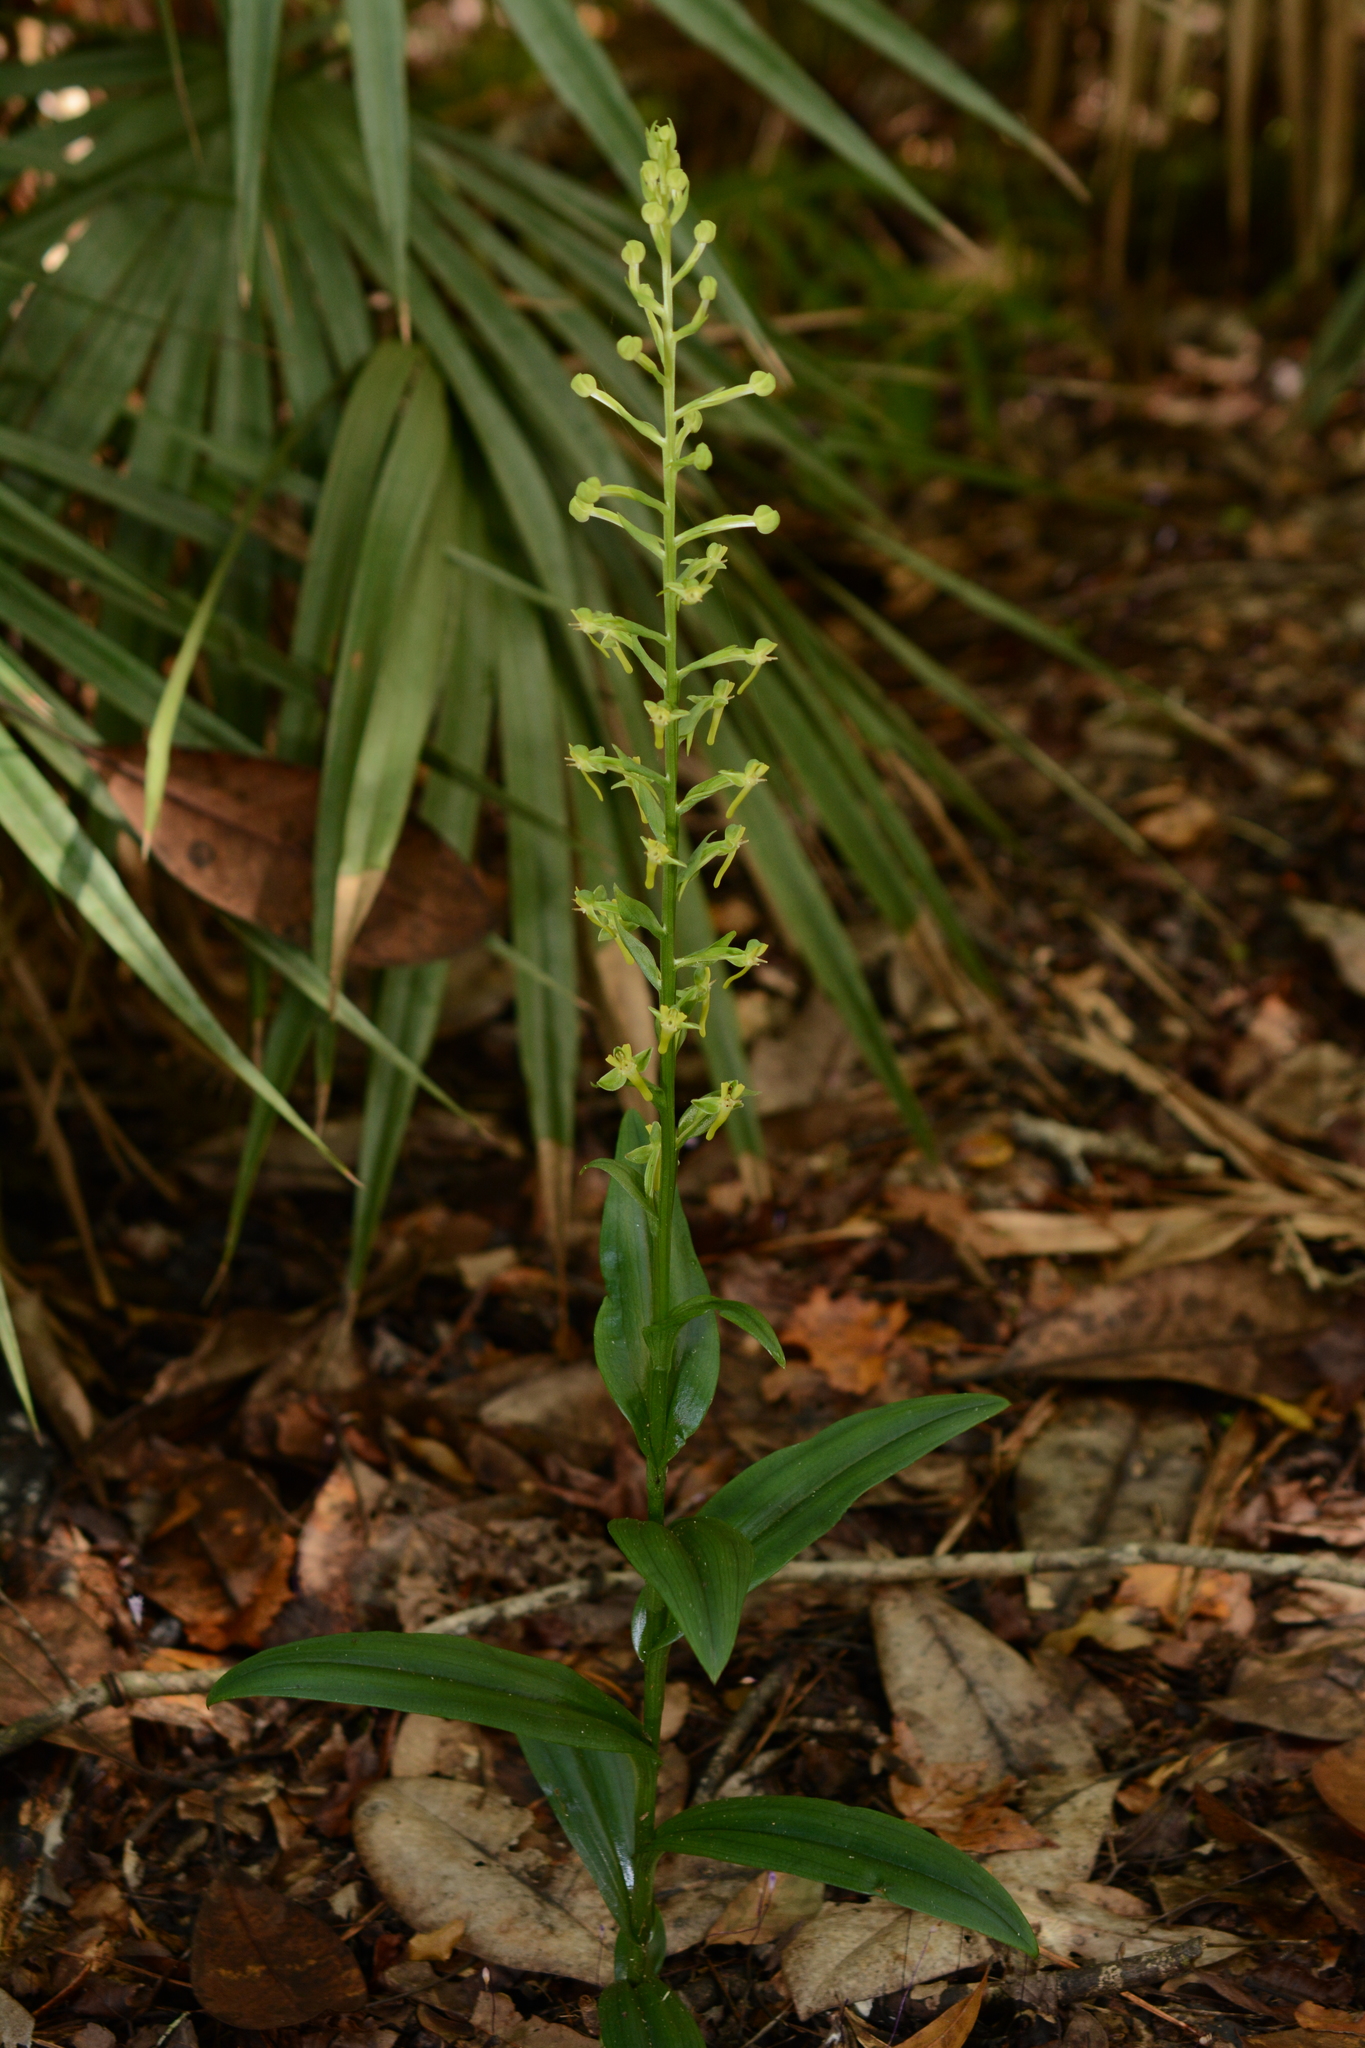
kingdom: Plantae
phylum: Tracheophyta
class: Liliopsida
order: Asparagales
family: Orchidaceae
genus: Habenaria
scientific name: Habenaria floribunda
